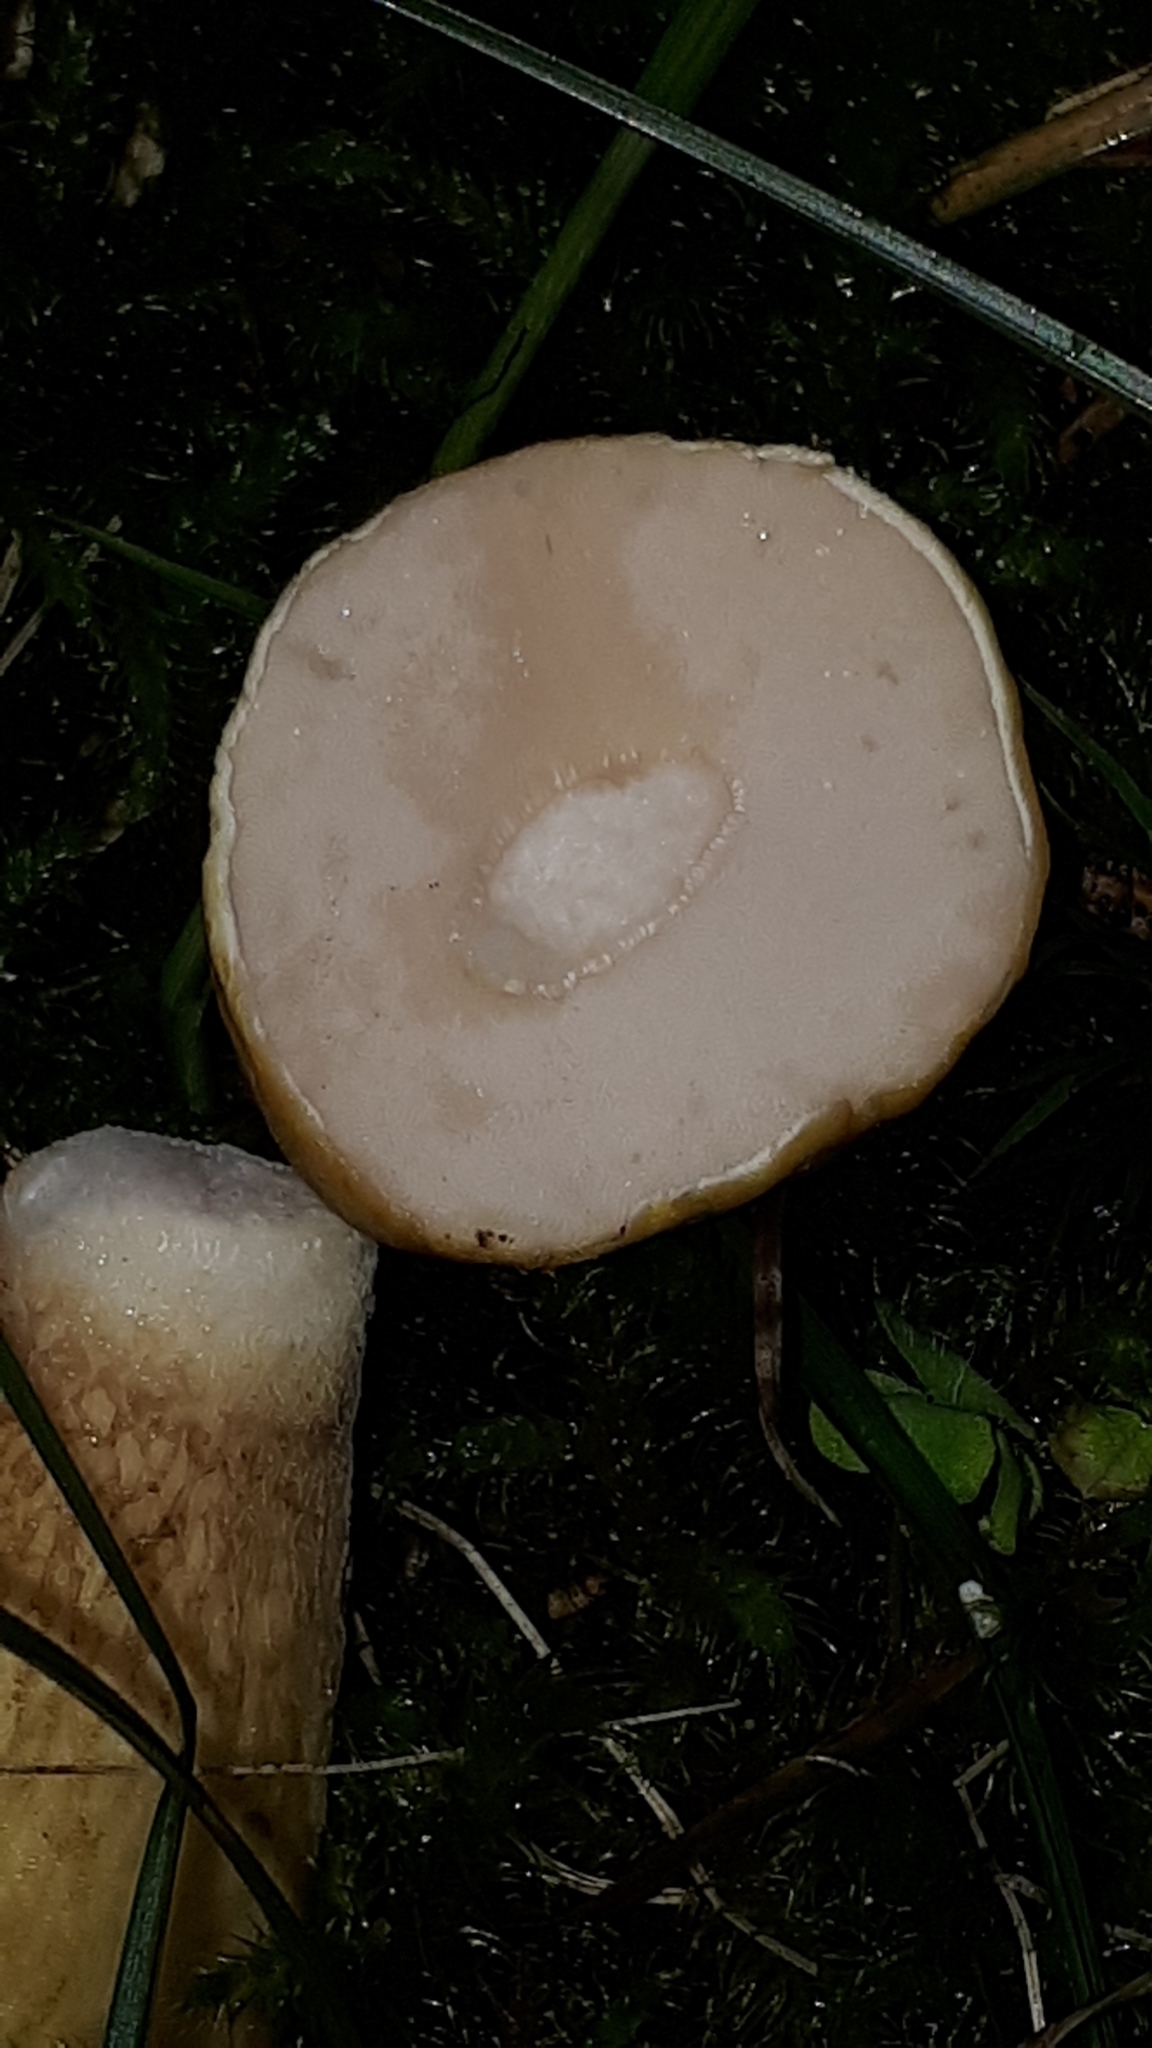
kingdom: Fungi
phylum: Basidiomycota
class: Agaricomycetes
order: Boletales
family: Boletaceae
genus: Tylopilus
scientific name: Tylopilus felleus
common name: Bitter bolete
